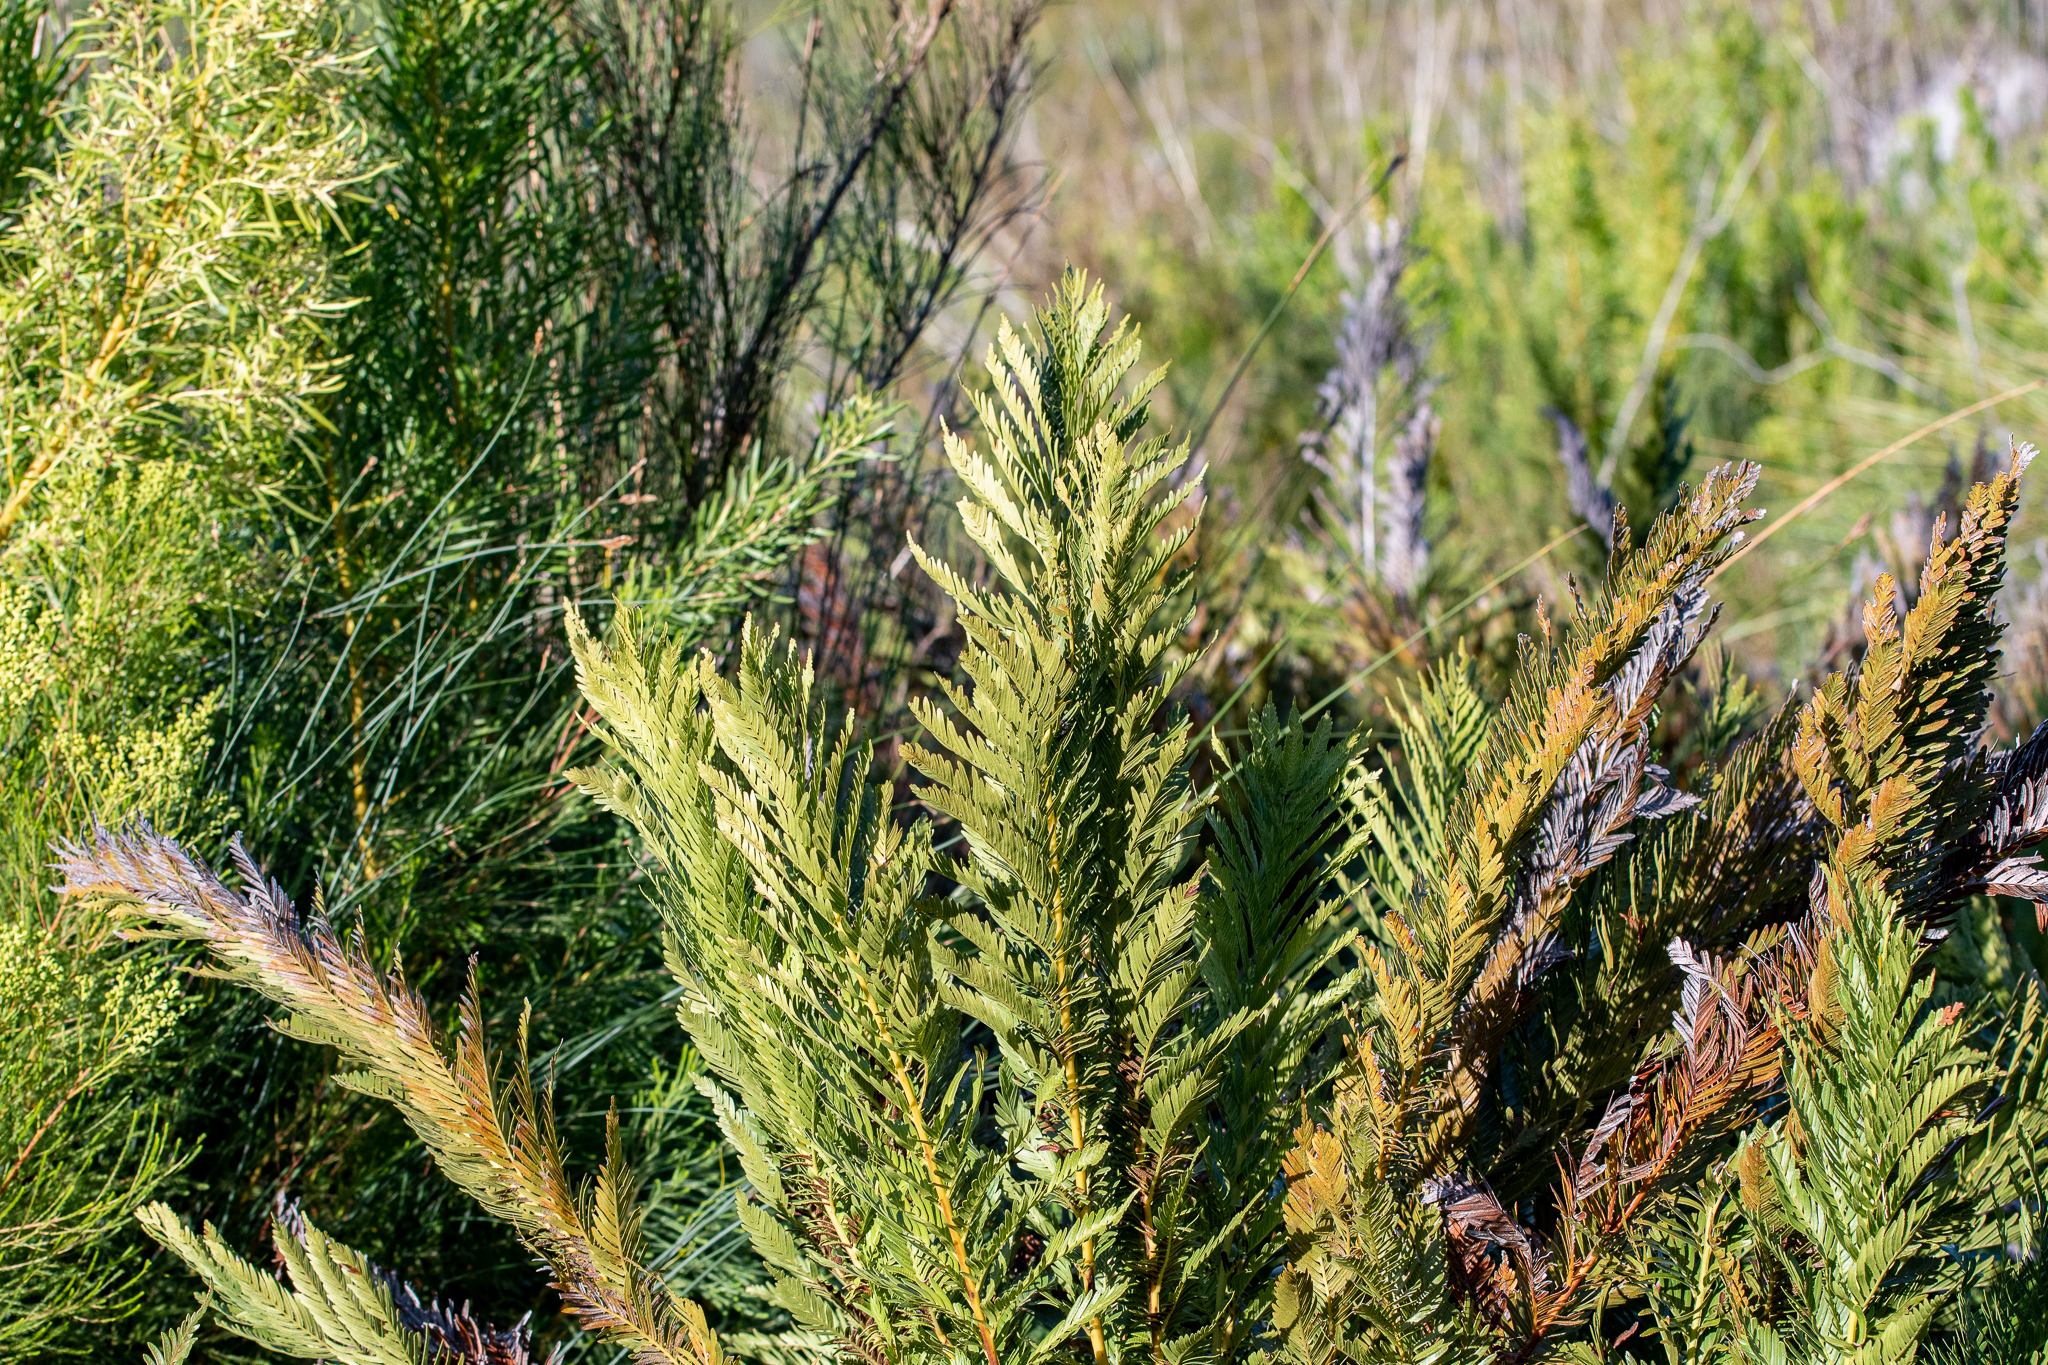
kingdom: Plantae
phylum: Tracheophyta
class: Polypodiopsida
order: Osmundales
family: Osmundaceae
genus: Todea
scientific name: Todea barbara
